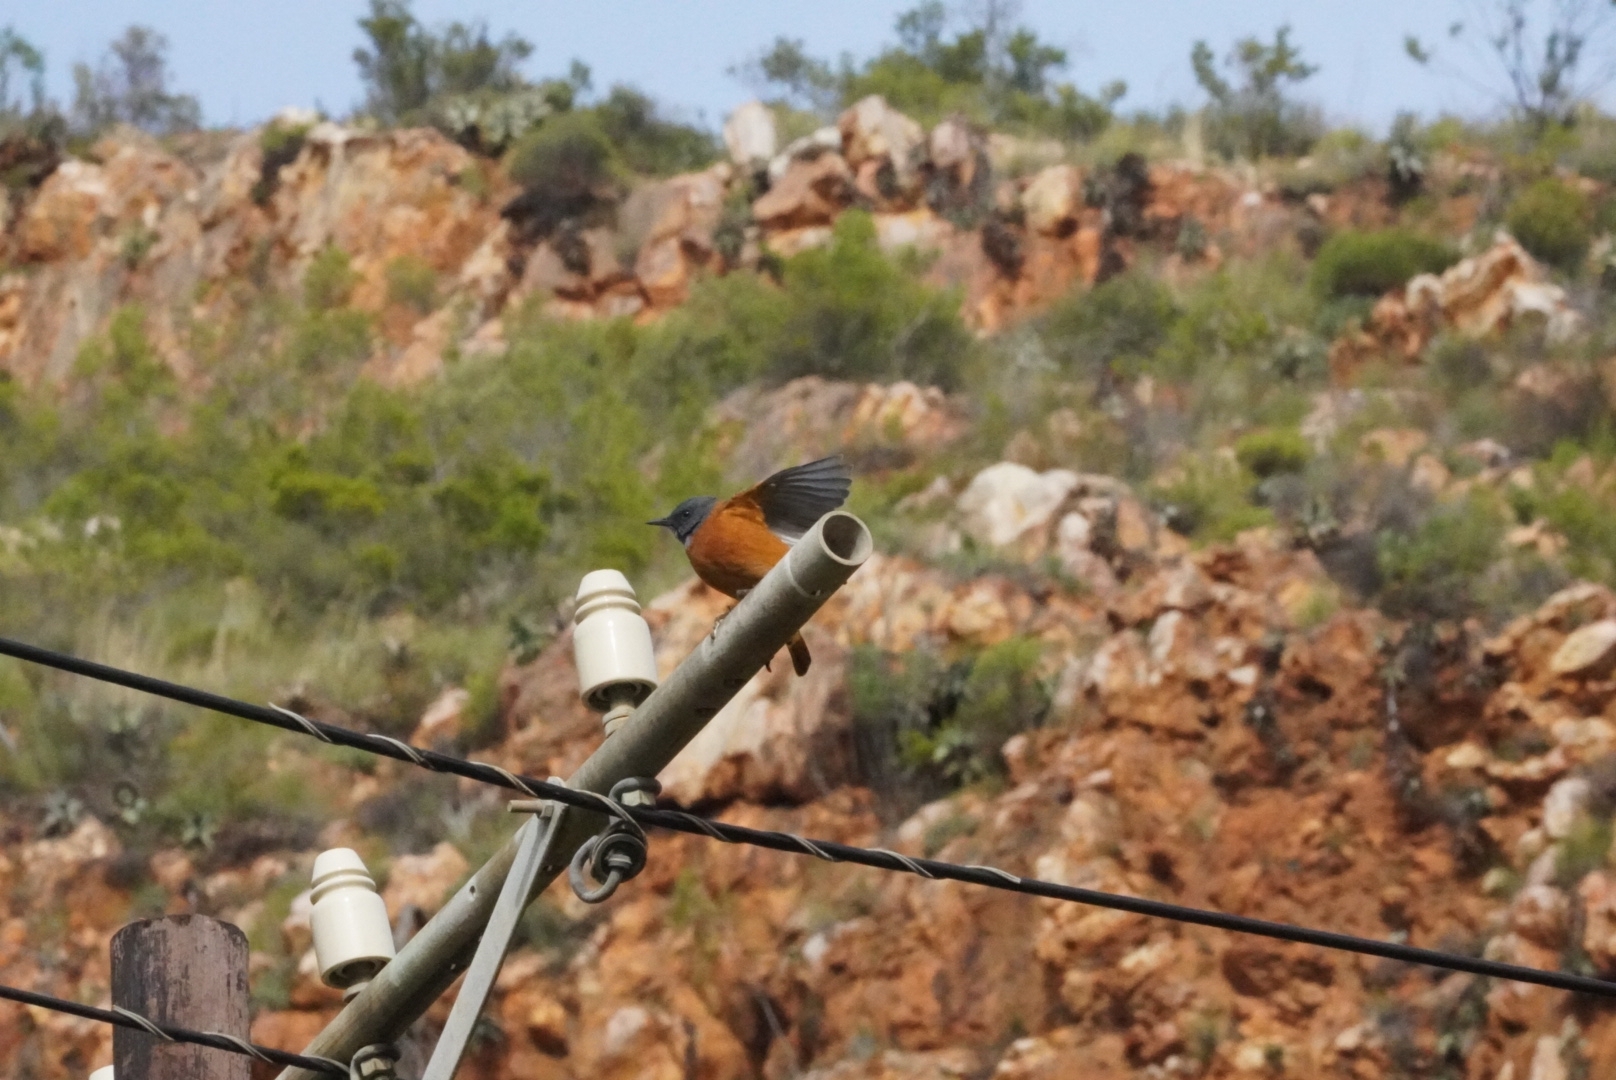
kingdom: Animalia
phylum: Chordata
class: Aves
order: Passeriformes
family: Muscicapidae
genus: Monticola
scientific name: Monticola rupestris
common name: Cape rock thrush
